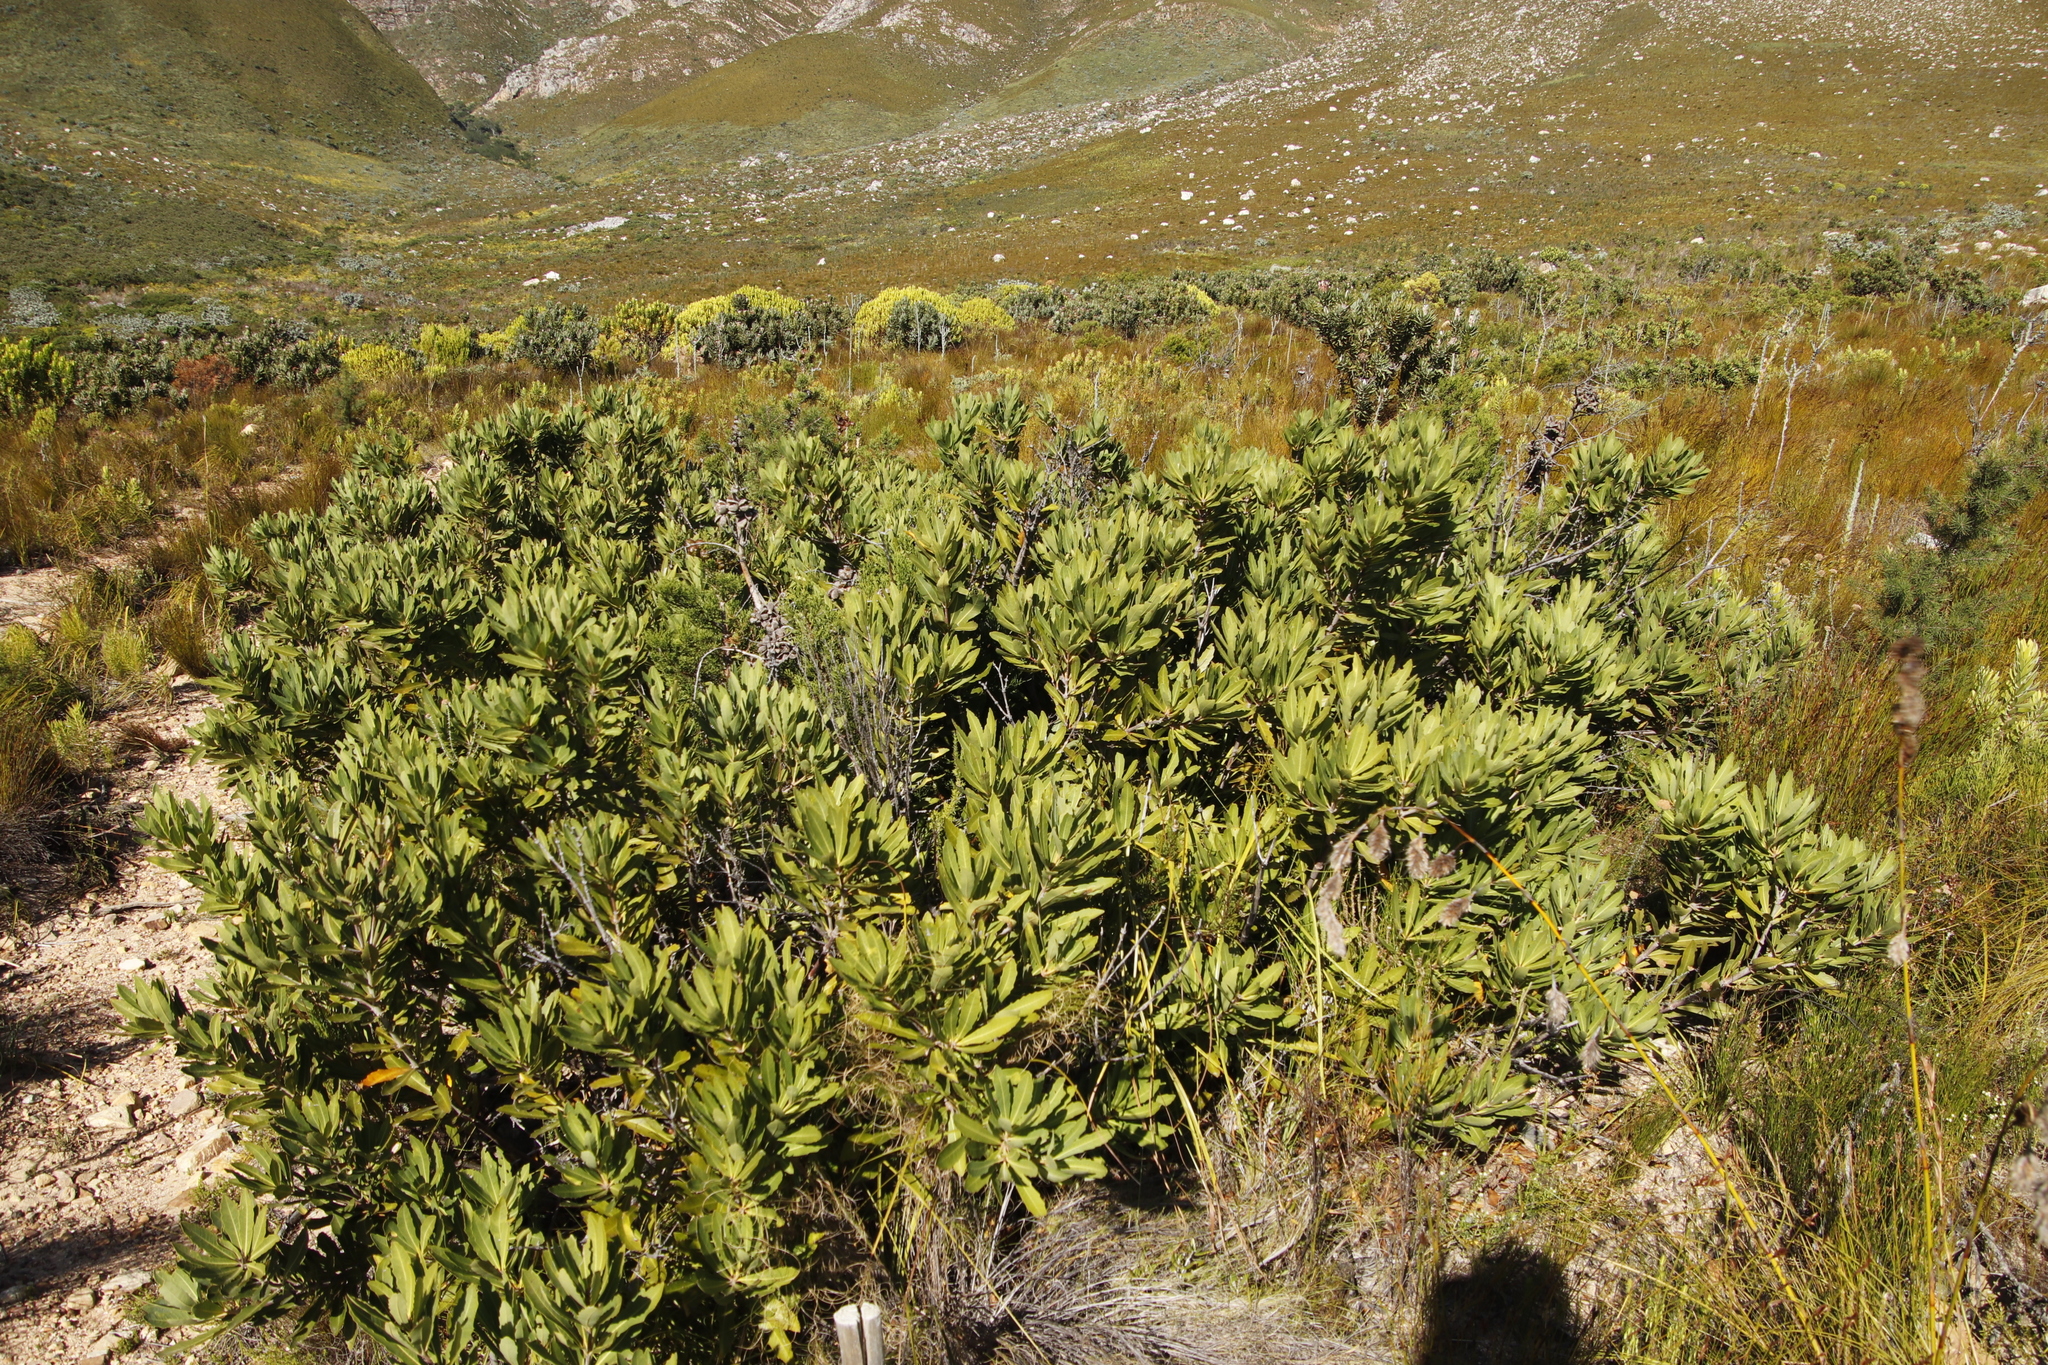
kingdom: Plantae
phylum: Tracheophyta
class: Magnoliopsida
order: Proteales
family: Proteaceae
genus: Brabejum
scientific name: Brabejum stellatifolium
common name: Wild almond
